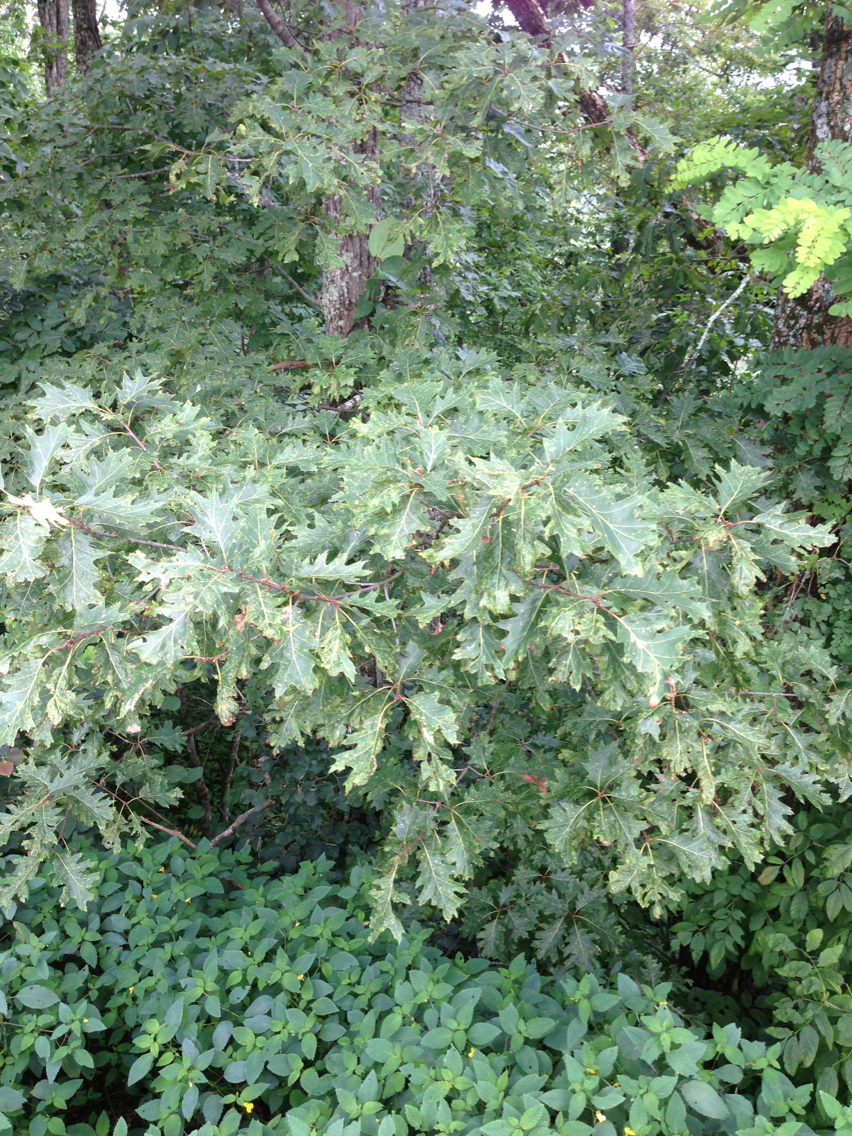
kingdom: Plantae
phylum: Tracheophyta
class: Magnoliopsida
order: Fagales
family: Fagaceae
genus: Quercus
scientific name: Quercus rubra
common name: Red oak
